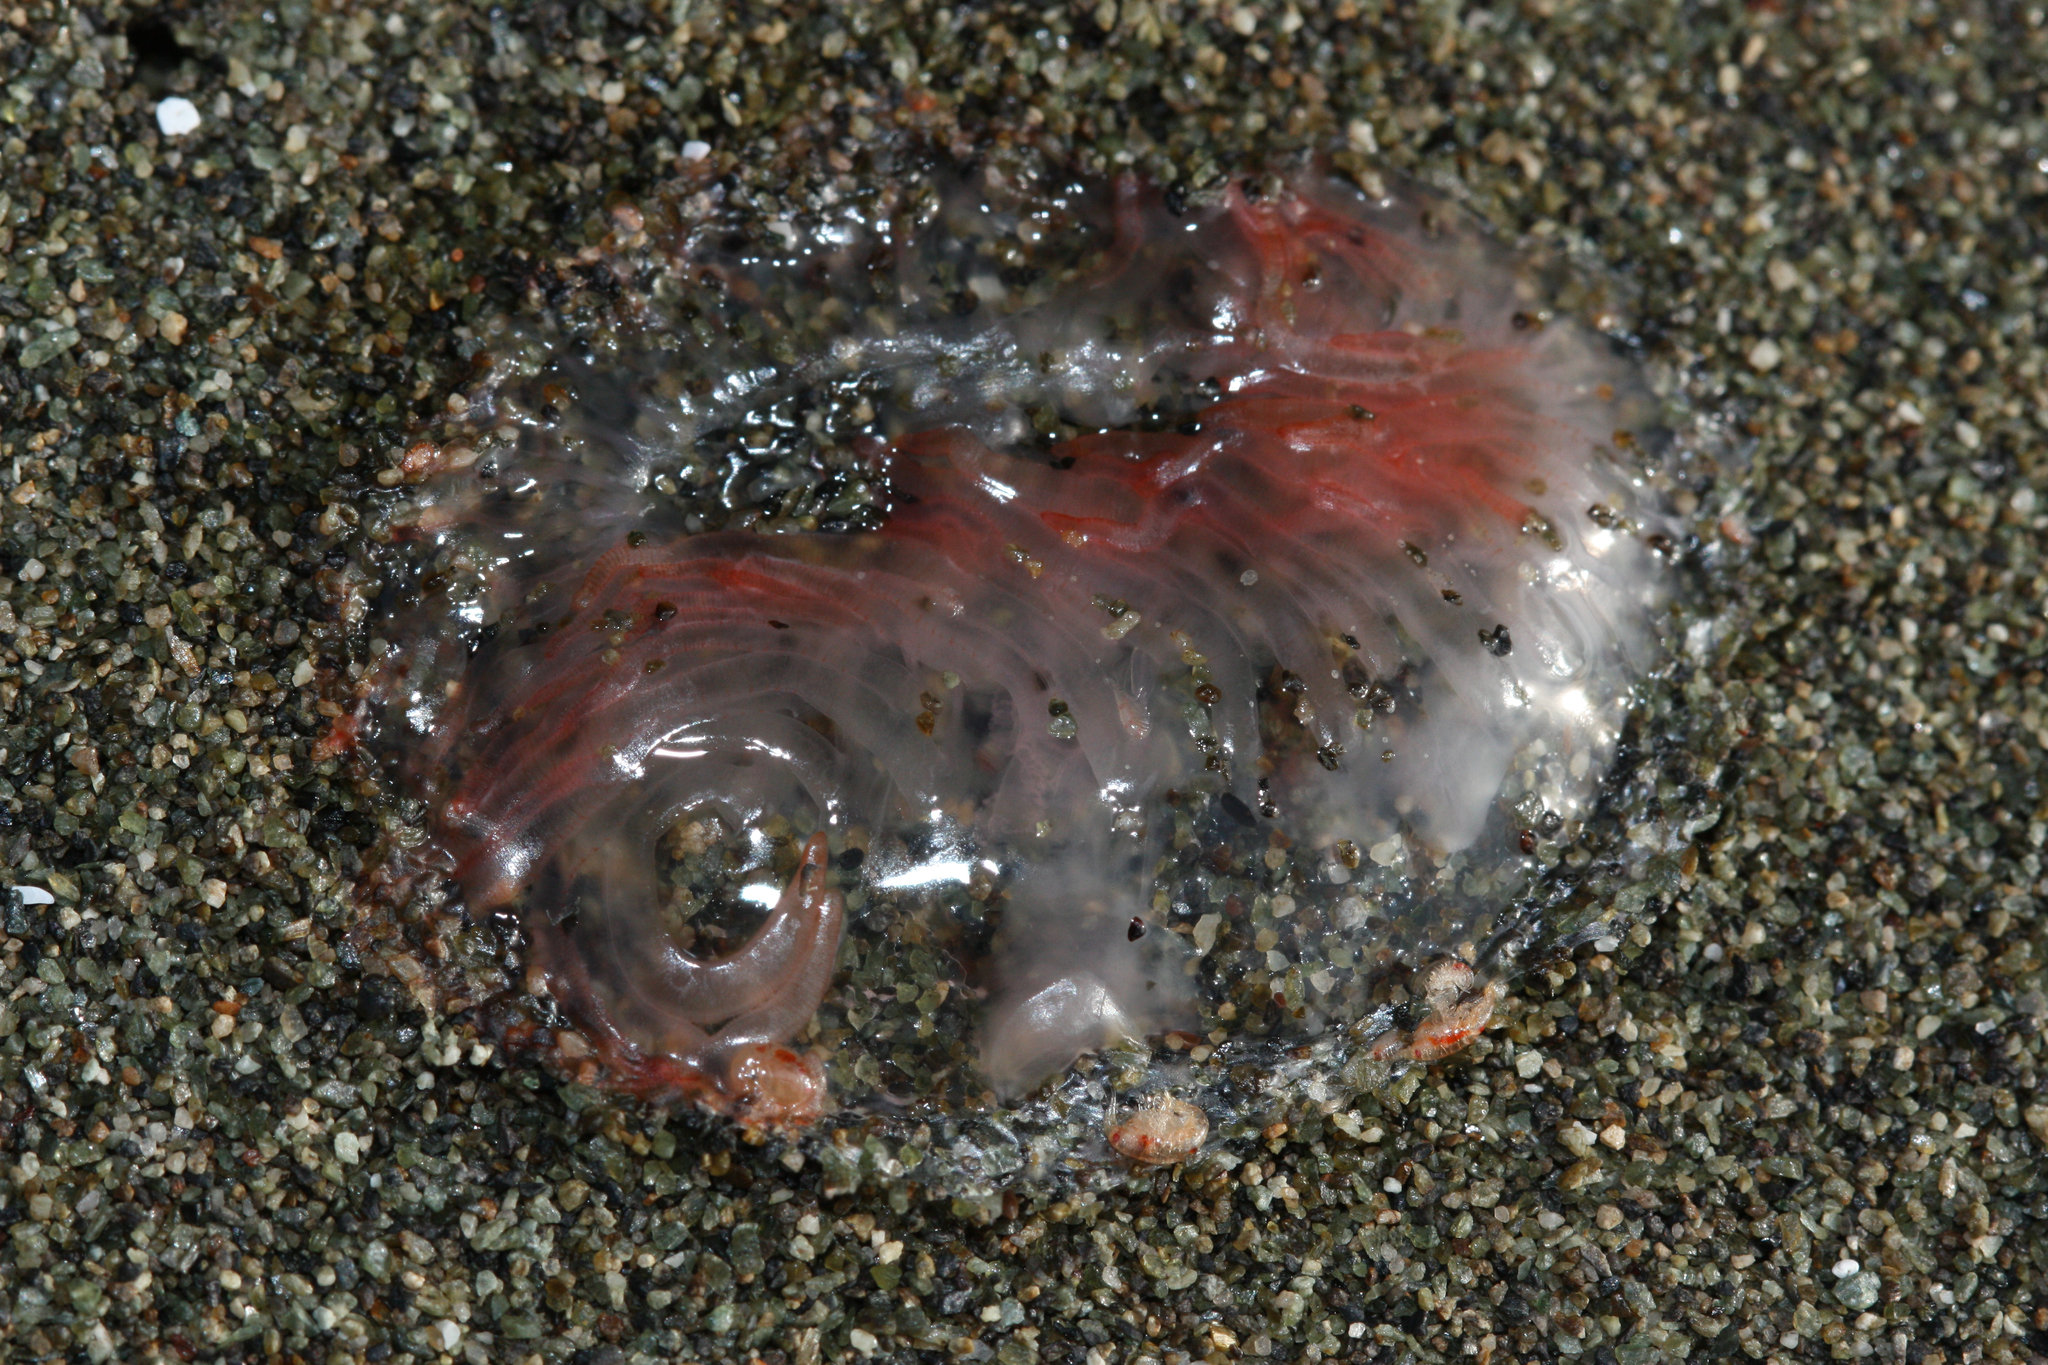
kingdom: Animalia
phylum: Cnidaria
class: Hydrozoa
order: Limnomedusae
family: Olindiidae
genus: Eperetmus
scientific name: Eperetmus typus
